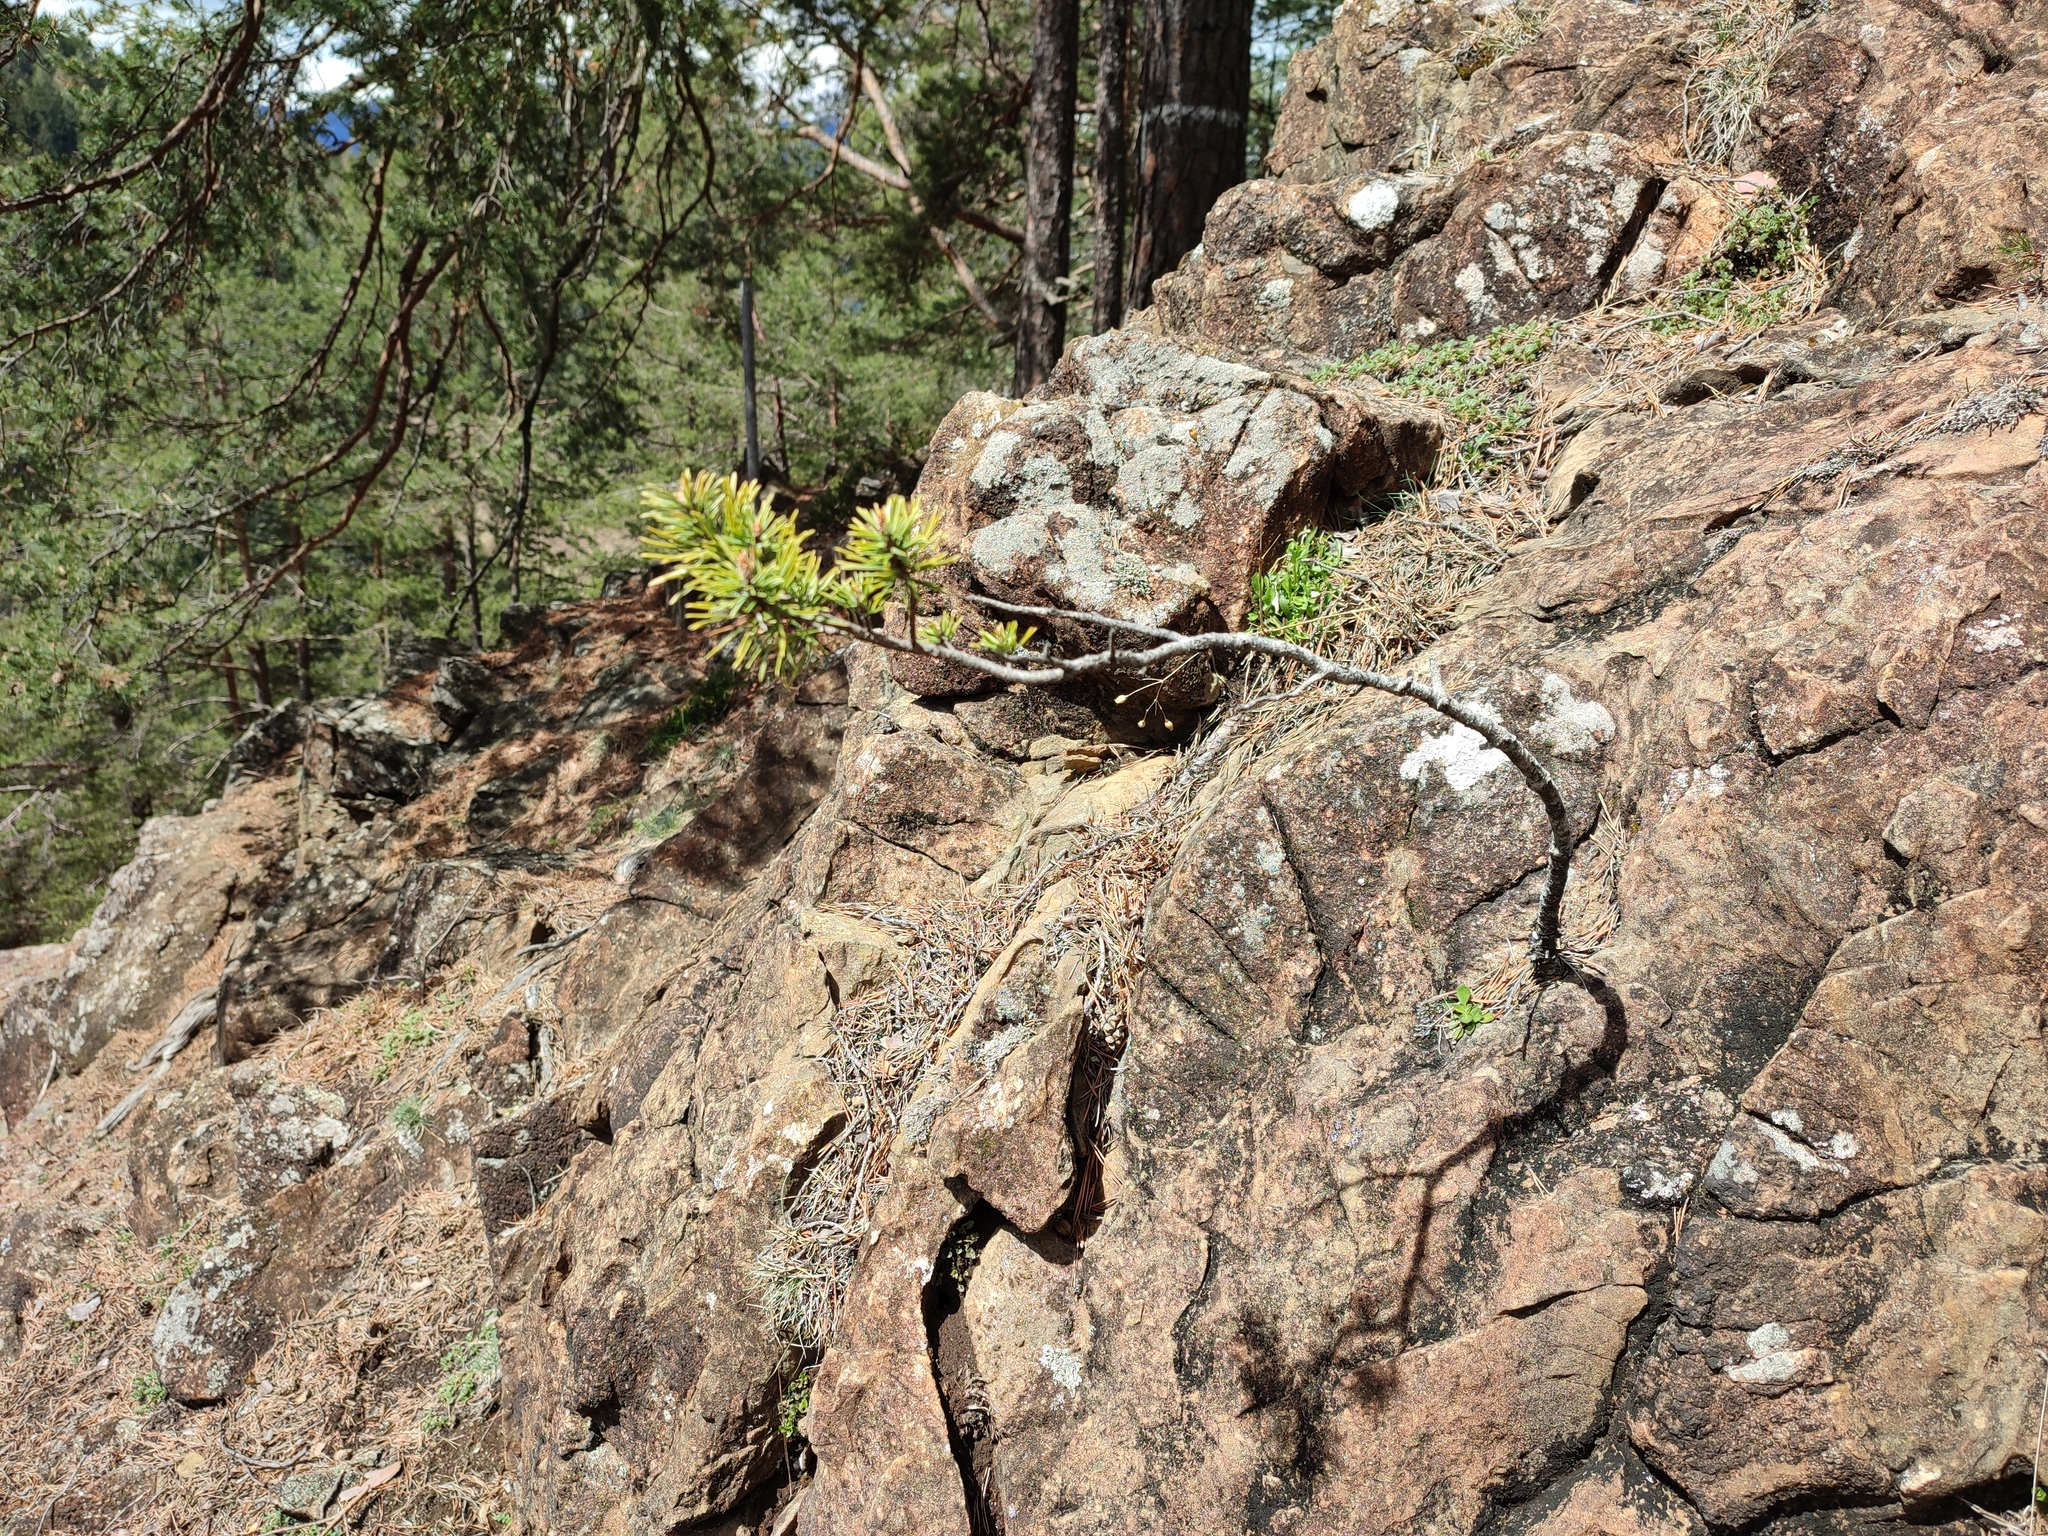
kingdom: Plantae
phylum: Tracheophyta
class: Pinopsida
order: Pinales
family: Pinaceae
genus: Pinus
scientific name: Pinus sylvestris
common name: Scots pine
